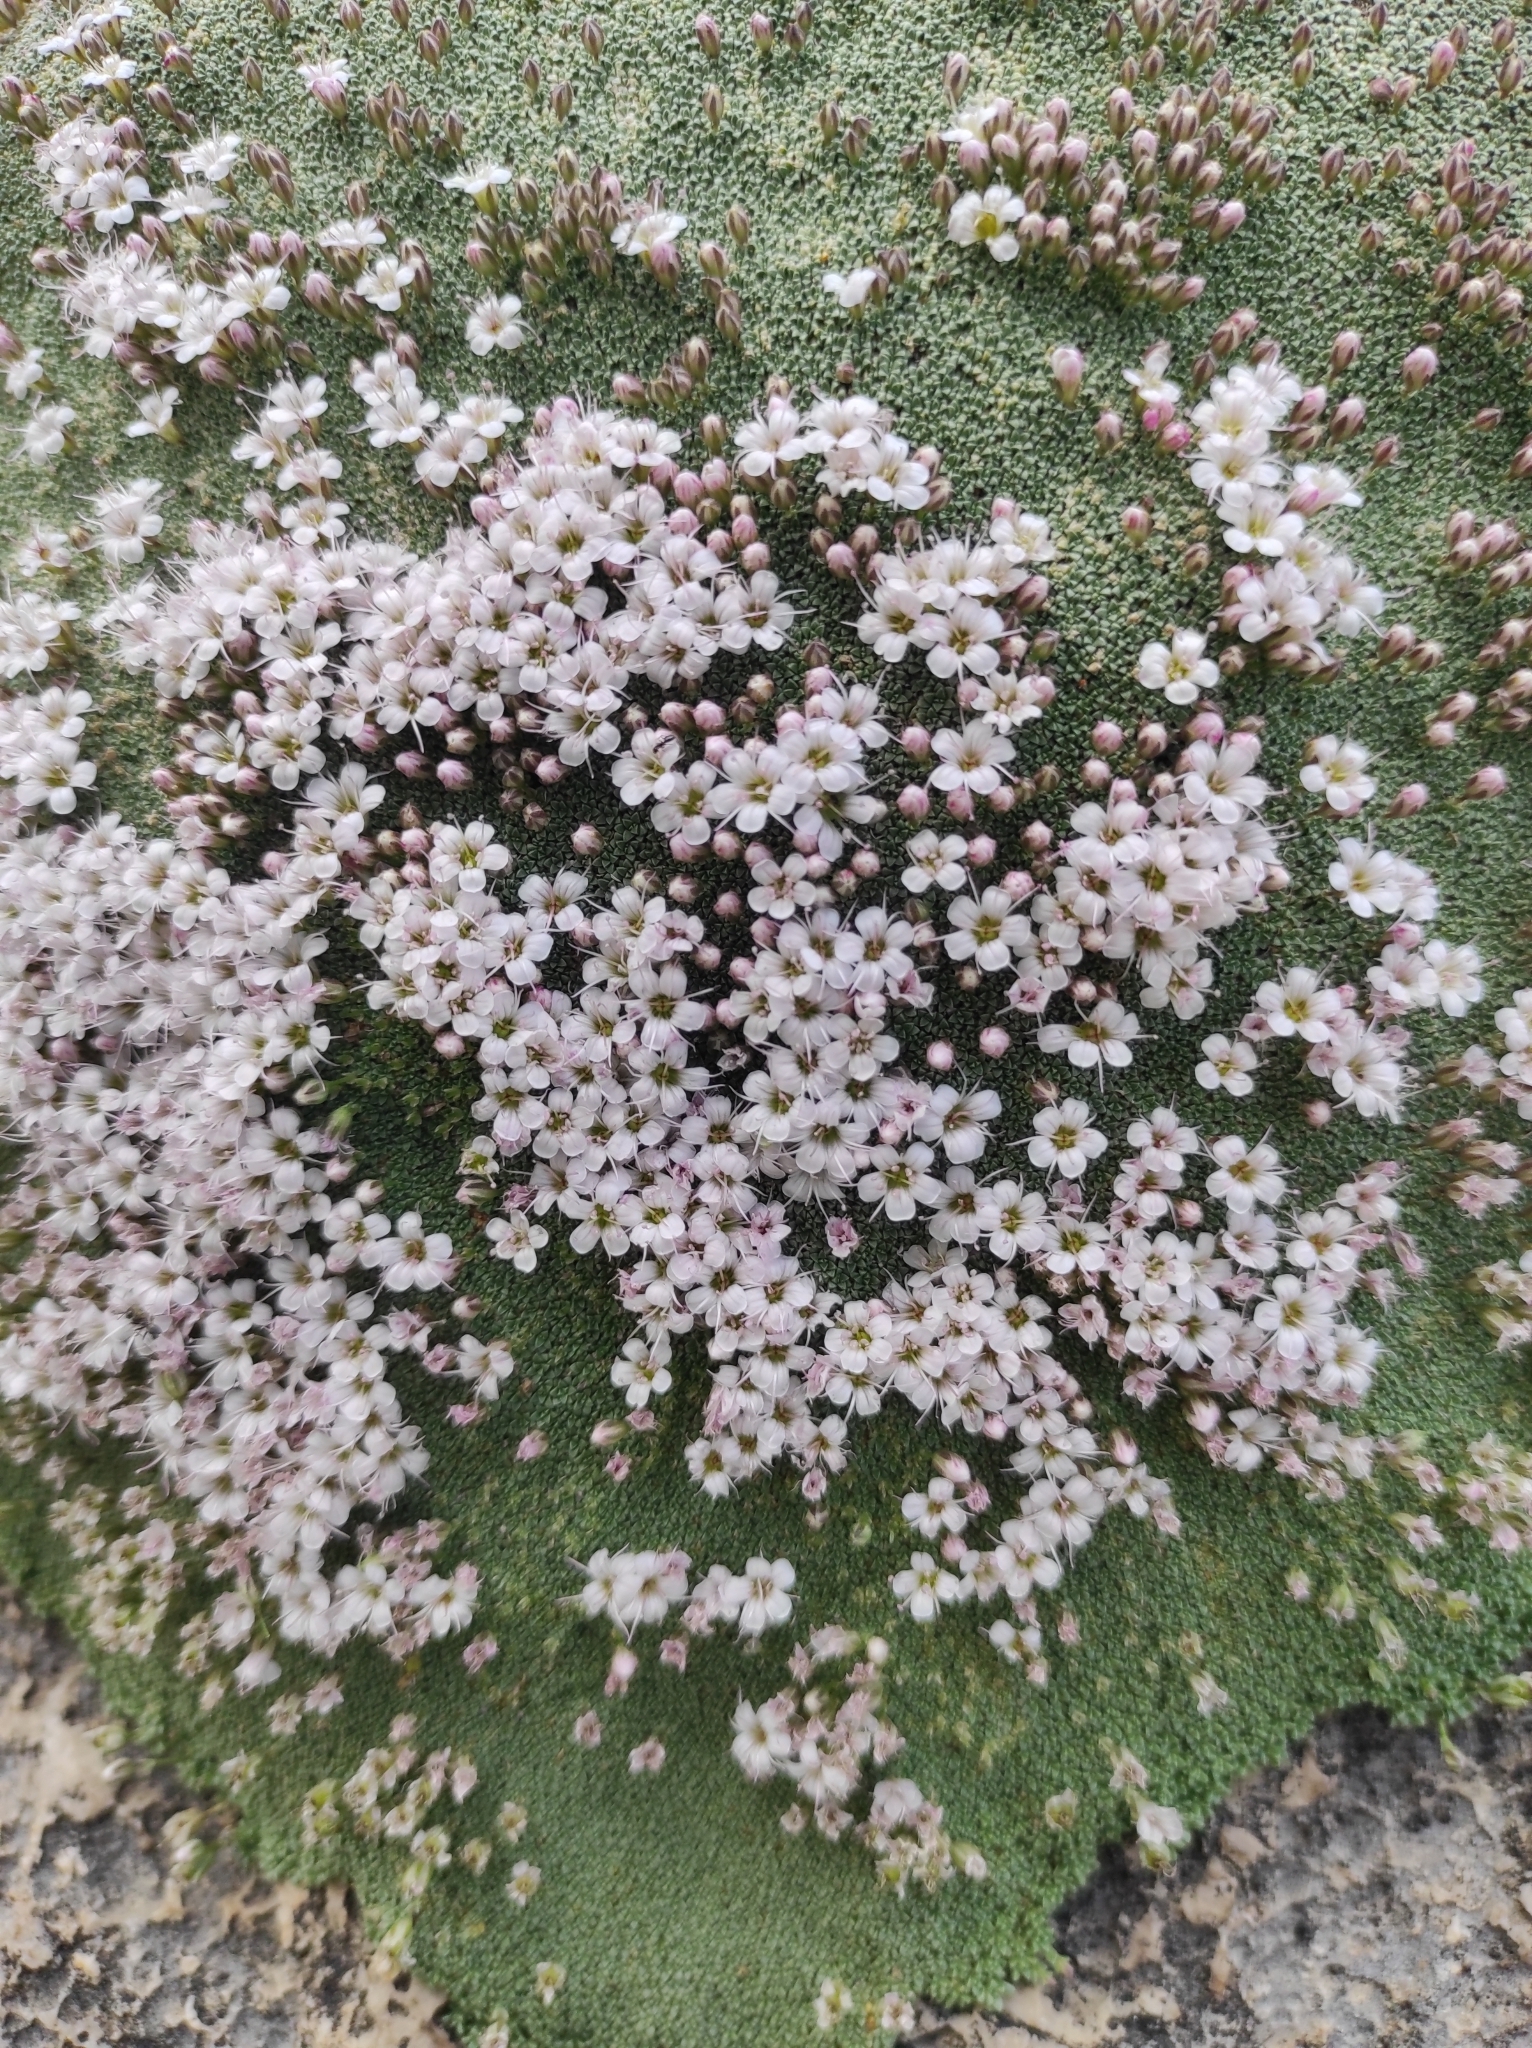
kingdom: Plantae
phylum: Tracheophyta
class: Magnoliopsida
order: Caryophyllales
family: Caryophyllaceae
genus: Gypsophila
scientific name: Gypsophila aretioides
